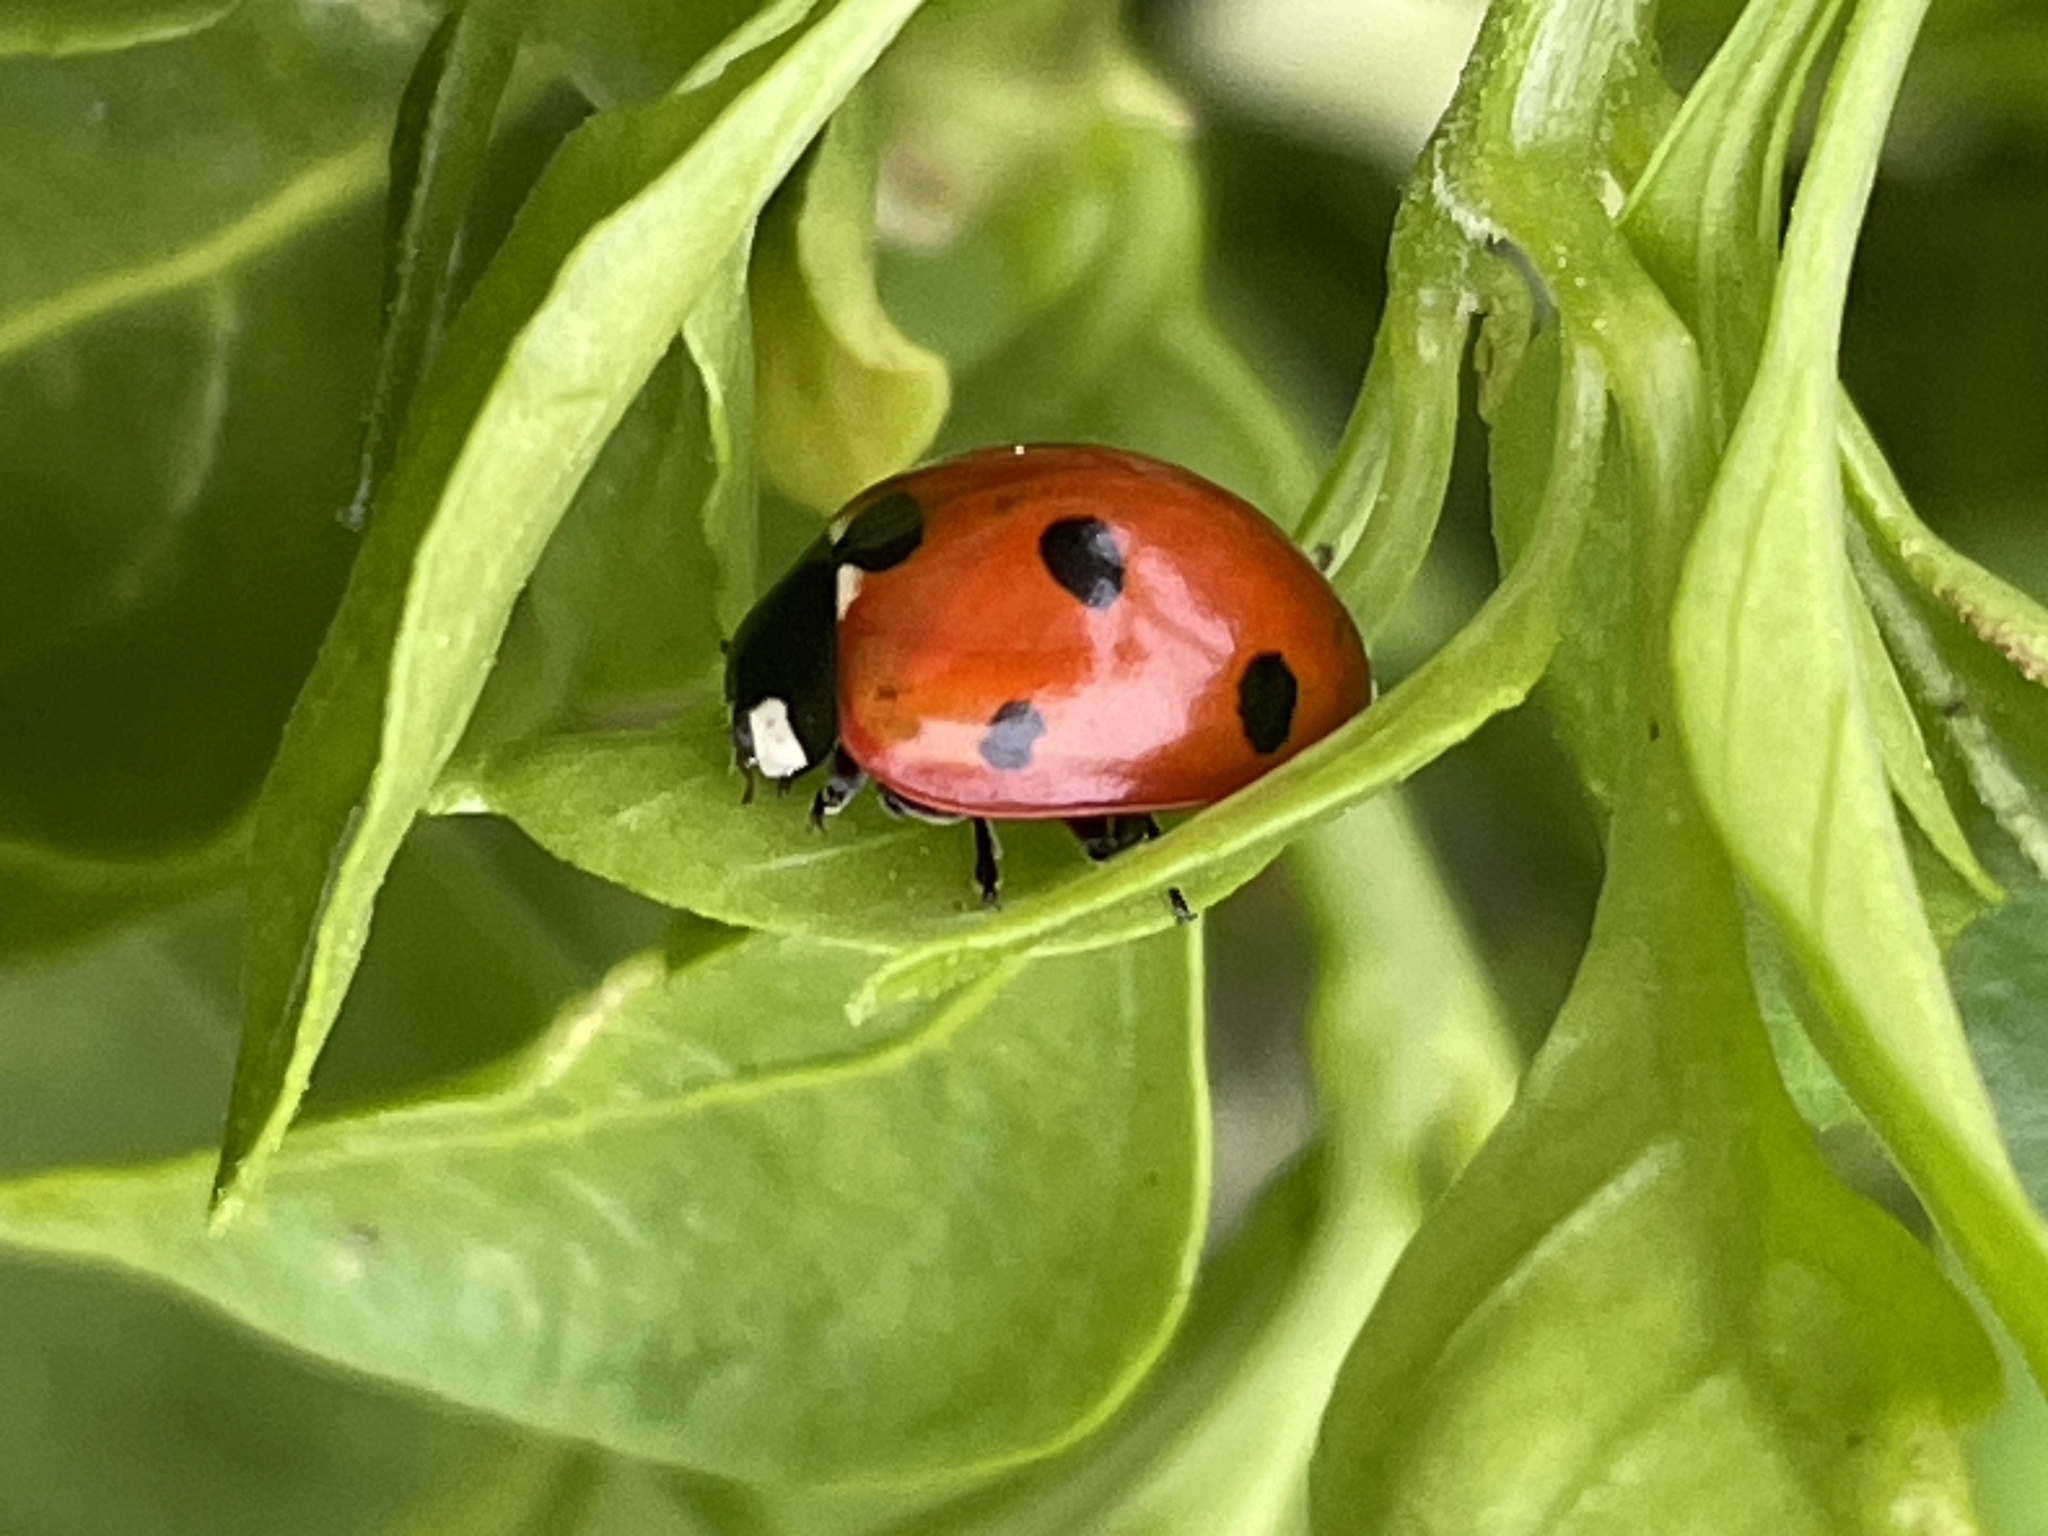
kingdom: Animalia
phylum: Arthropoda
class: Insecta
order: Coleoptera
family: Coccinellidae
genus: Coccinella
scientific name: Coccinella septempunctata
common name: Sevenspotted lady beetle
